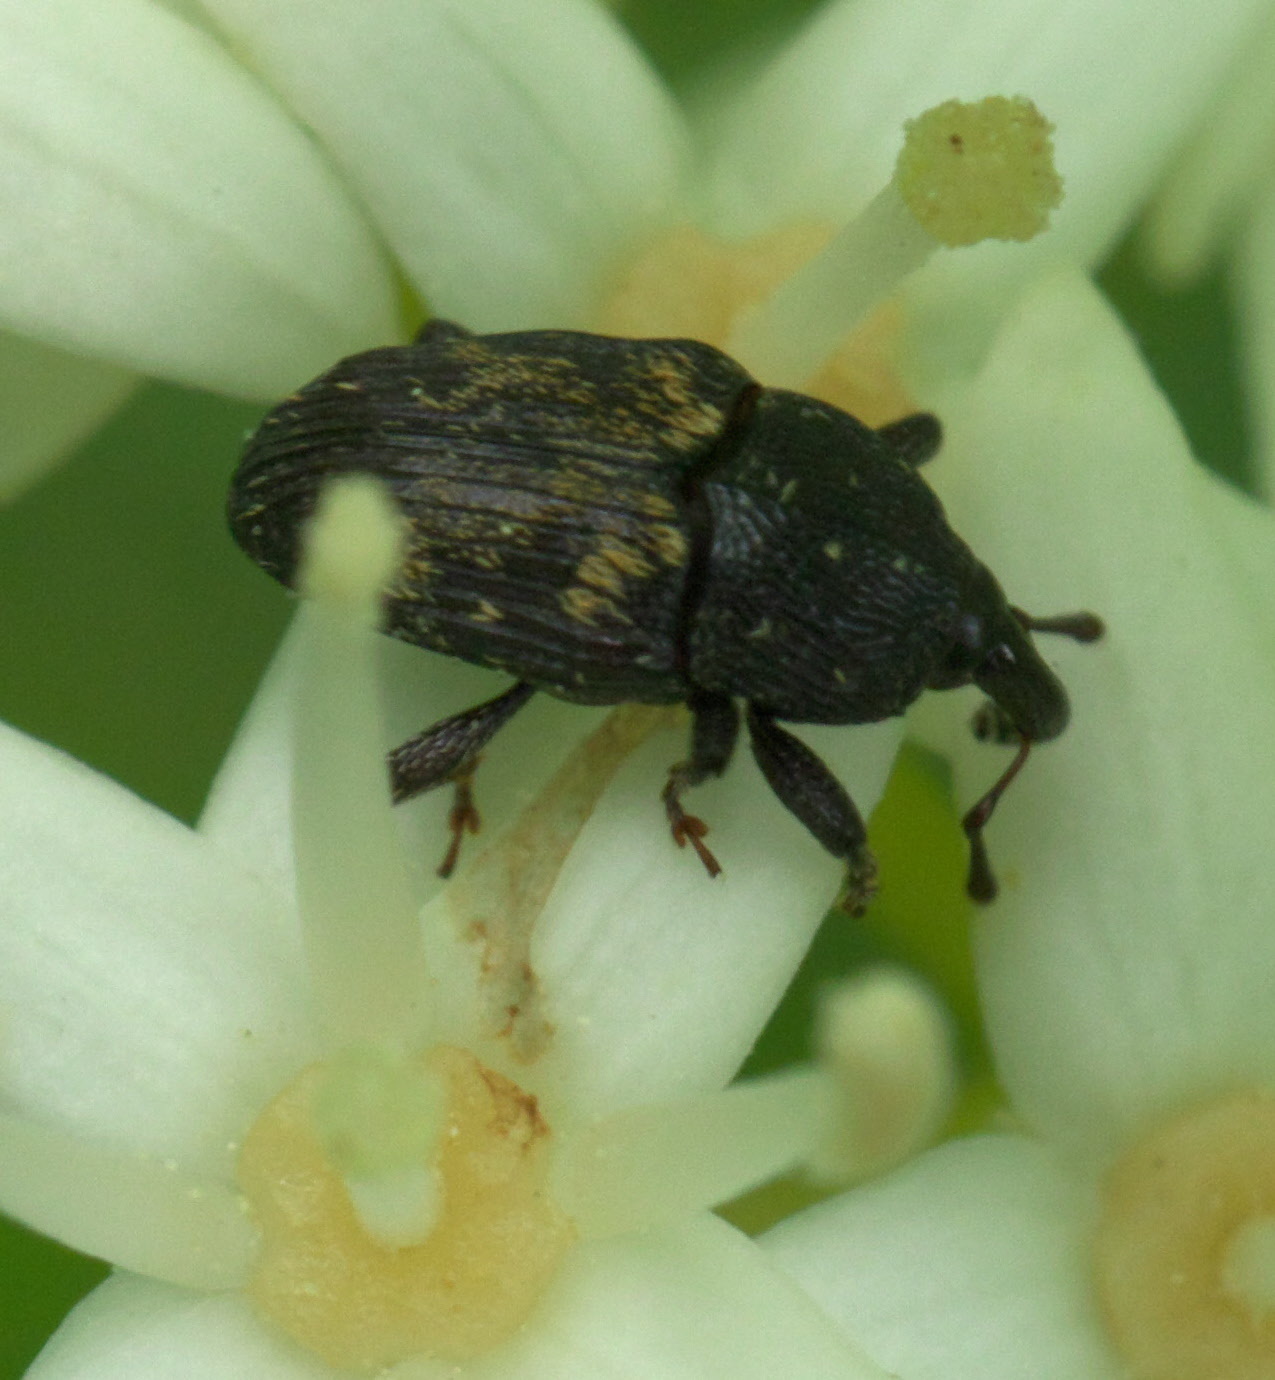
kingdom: Animalia
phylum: Arthropoda
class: Insecta
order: Coleoptera
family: Curculionidae
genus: Glyptobaris
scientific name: Glyptobaris lecontei
